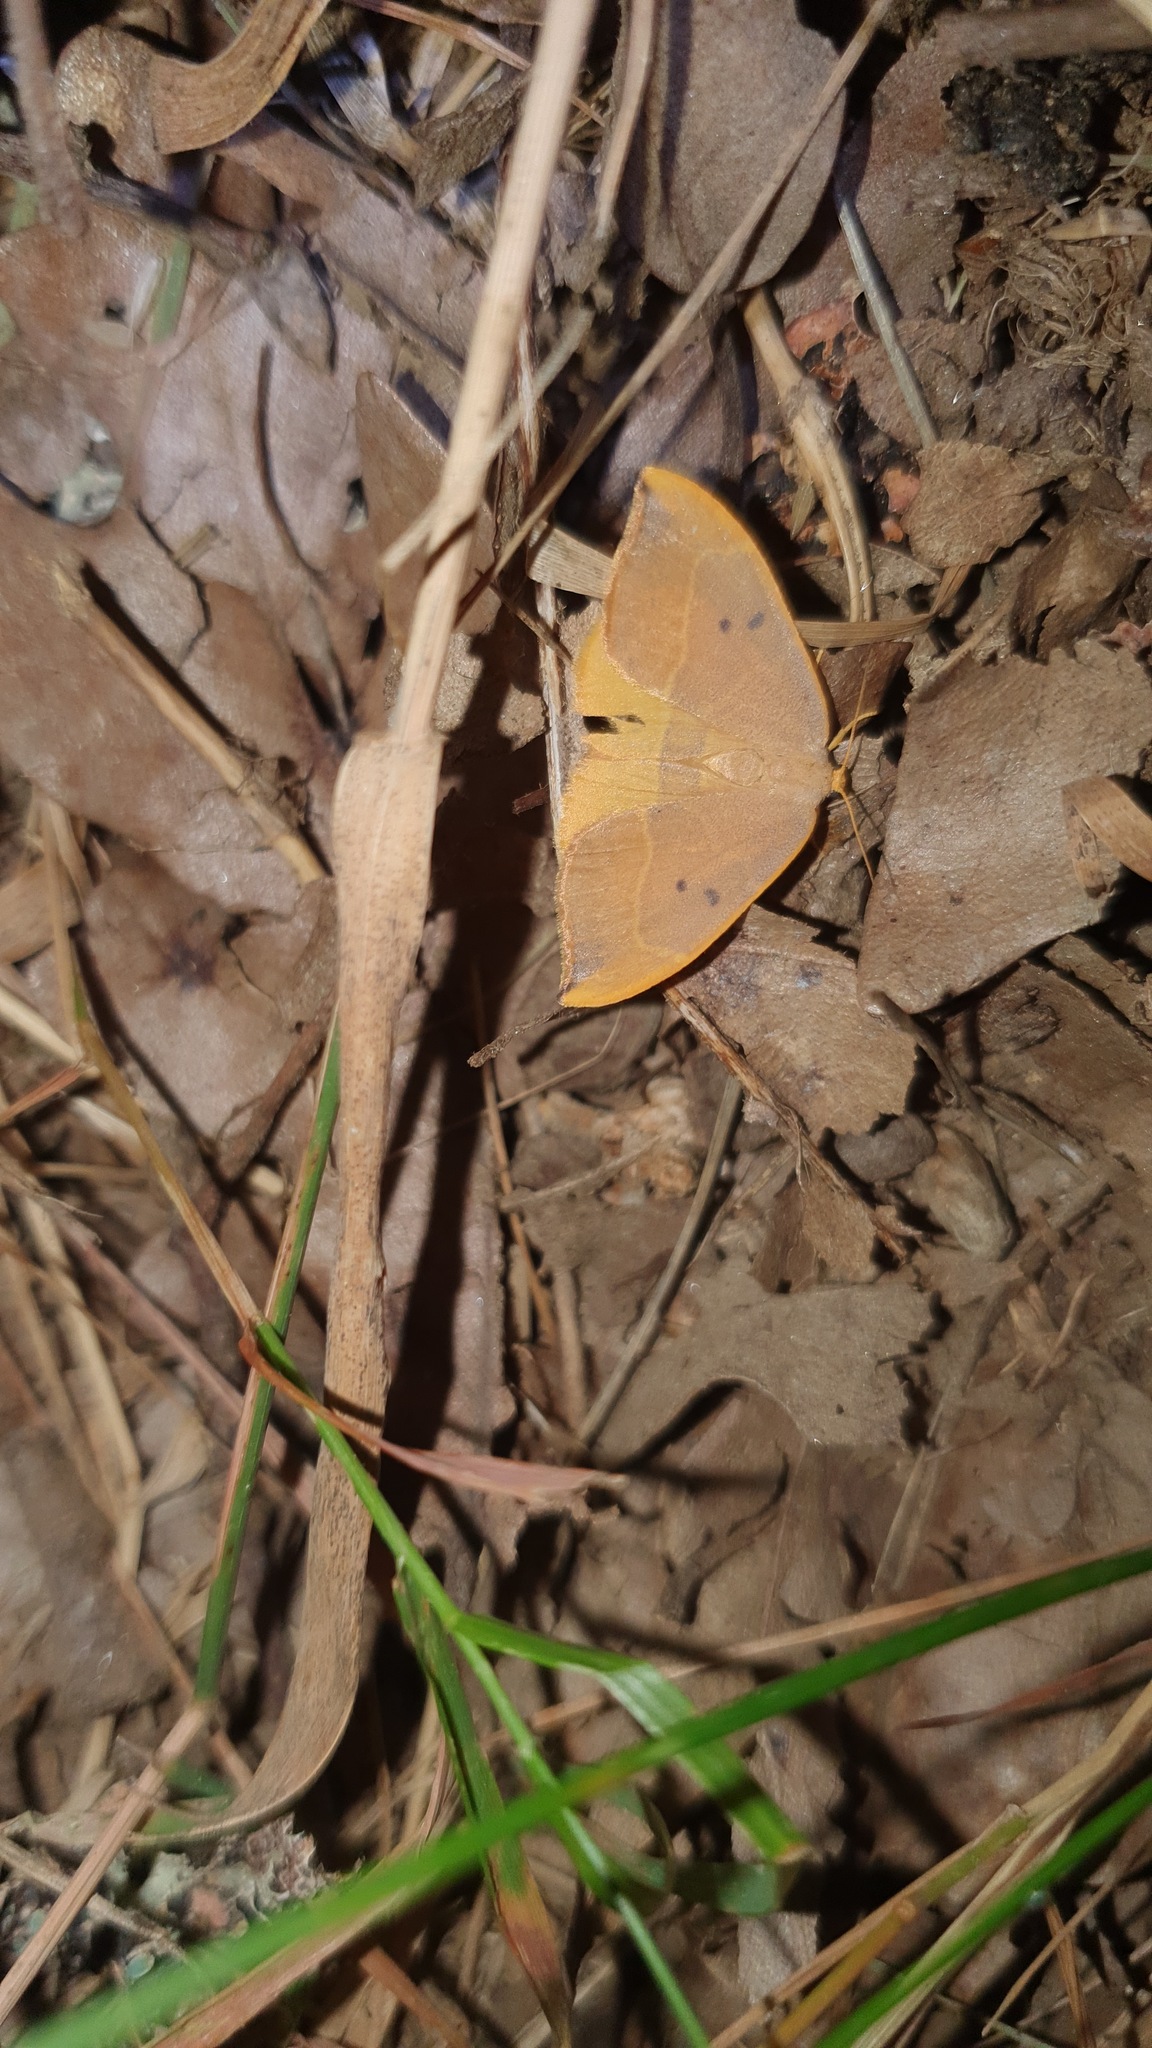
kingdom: Animalia
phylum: Arthropoda
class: Insecta
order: Lepidoptera
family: Drepanidae
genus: Watsonalla
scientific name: Watsonalla binaria
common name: Oak hook-tip
